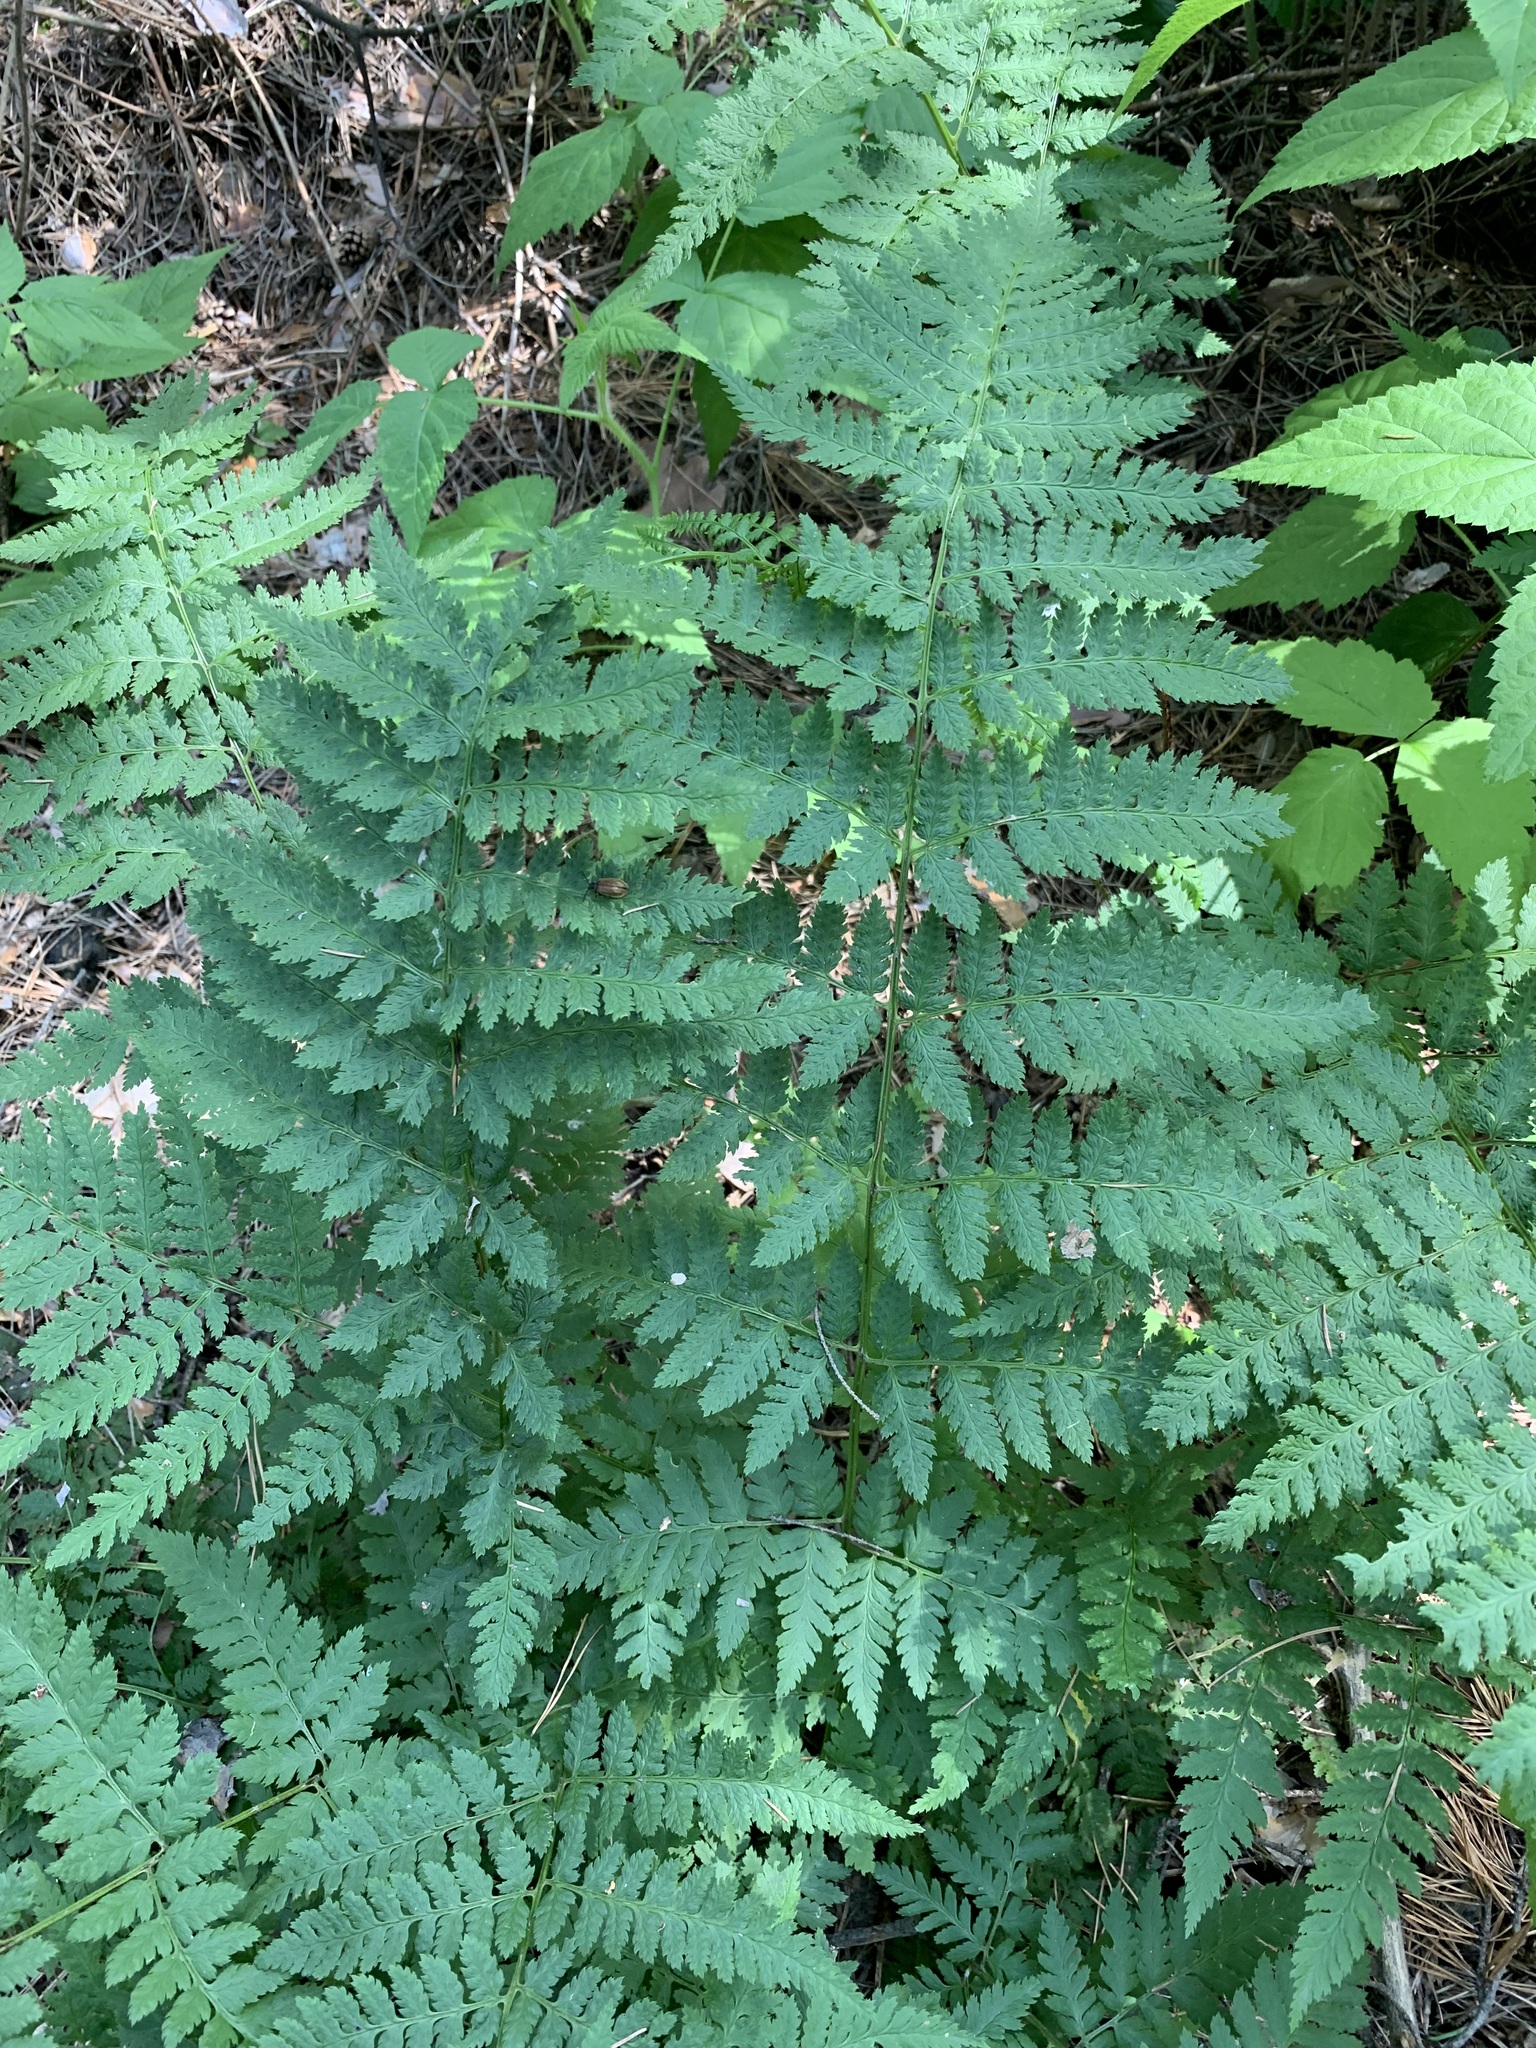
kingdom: Plantae
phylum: Tracheophyta
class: Polypodiopsida
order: Polypodiales
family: Dryopteridaceae
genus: Dryopteris
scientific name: Dryopteris carthusiana
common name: Narrow buckler-fern
